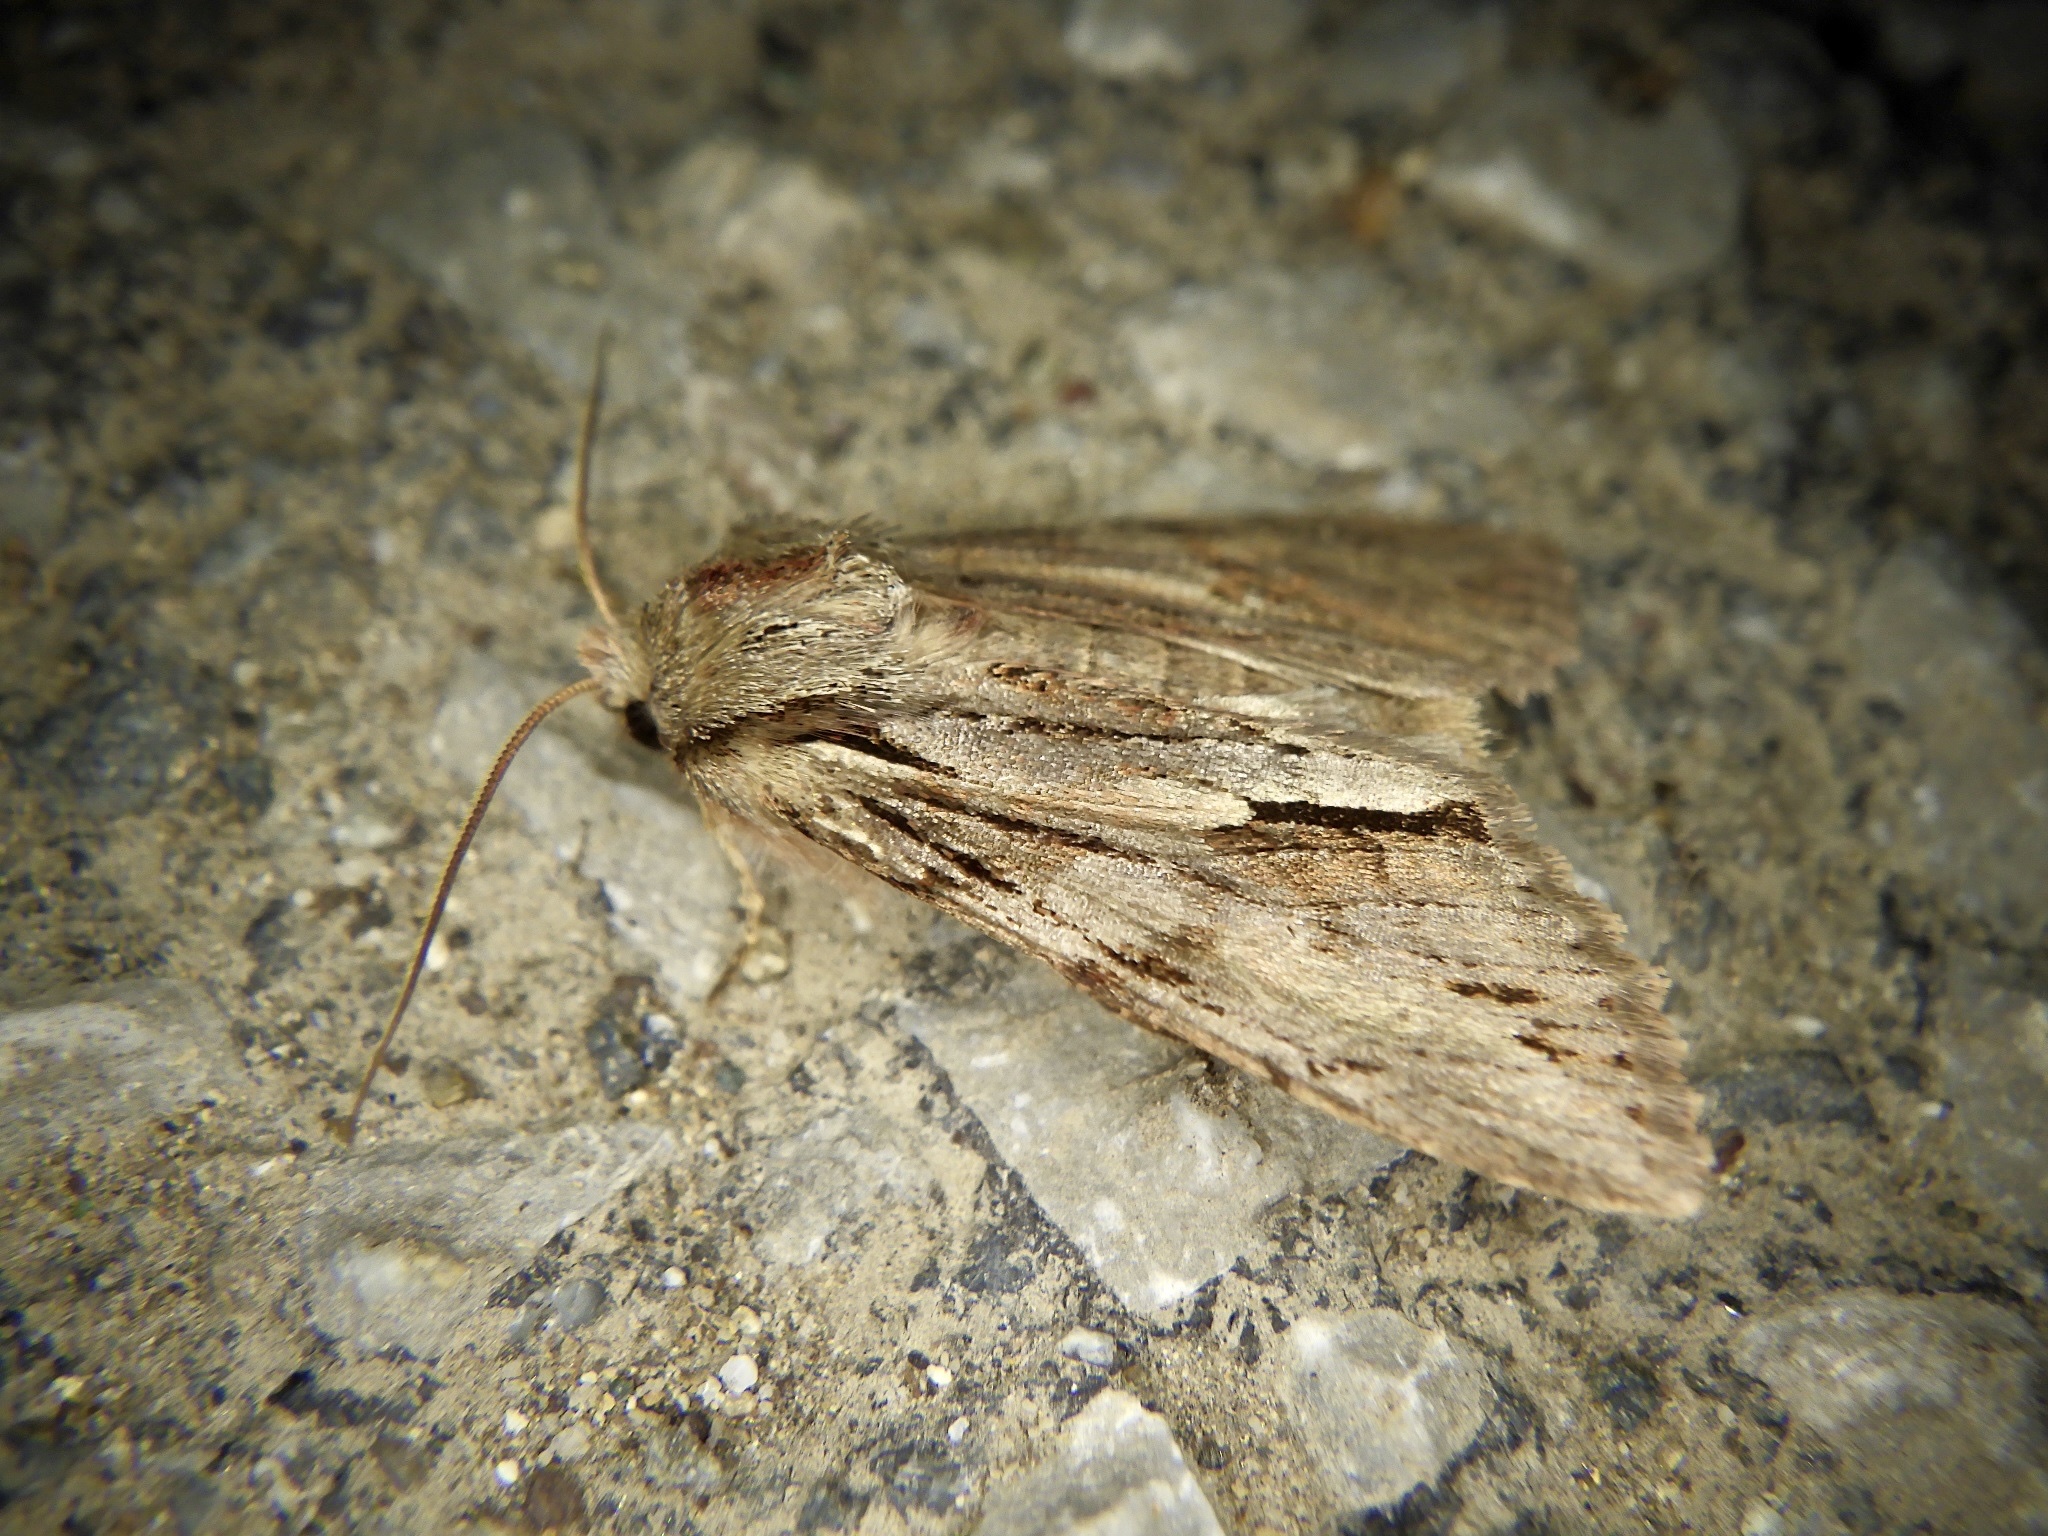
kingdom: Animalia
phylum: Arthropoda
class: Insecta
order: Lepidoptera
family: Noctuidae
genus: Egira
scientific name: Egira saxea
